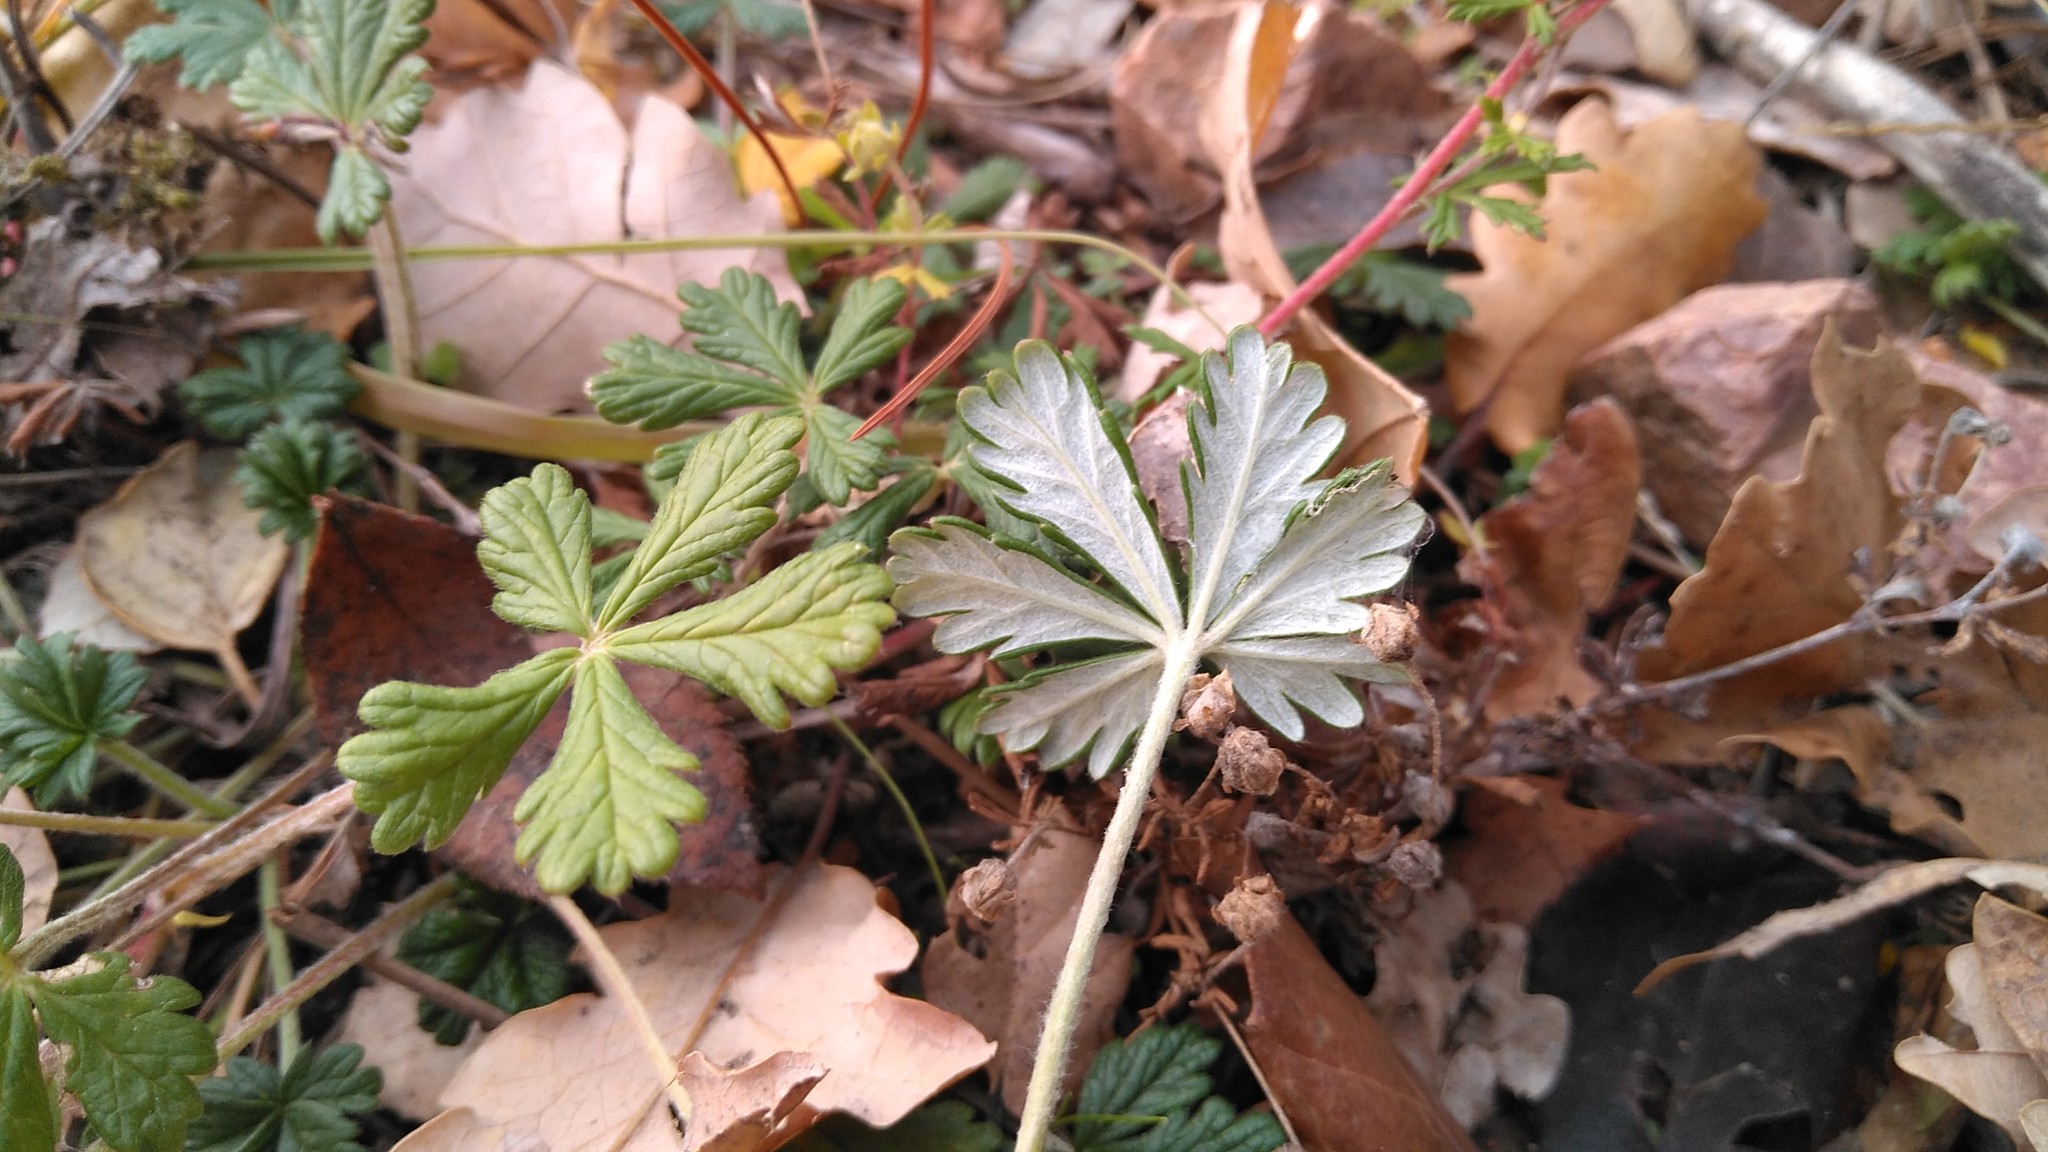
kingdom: Plantae
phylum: Tracheophyta
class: Magnoliopsida
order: Rosales
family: Rosaceae
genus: Potentilla
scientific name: Potentilla argentea
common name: Hoary cinquefoil
